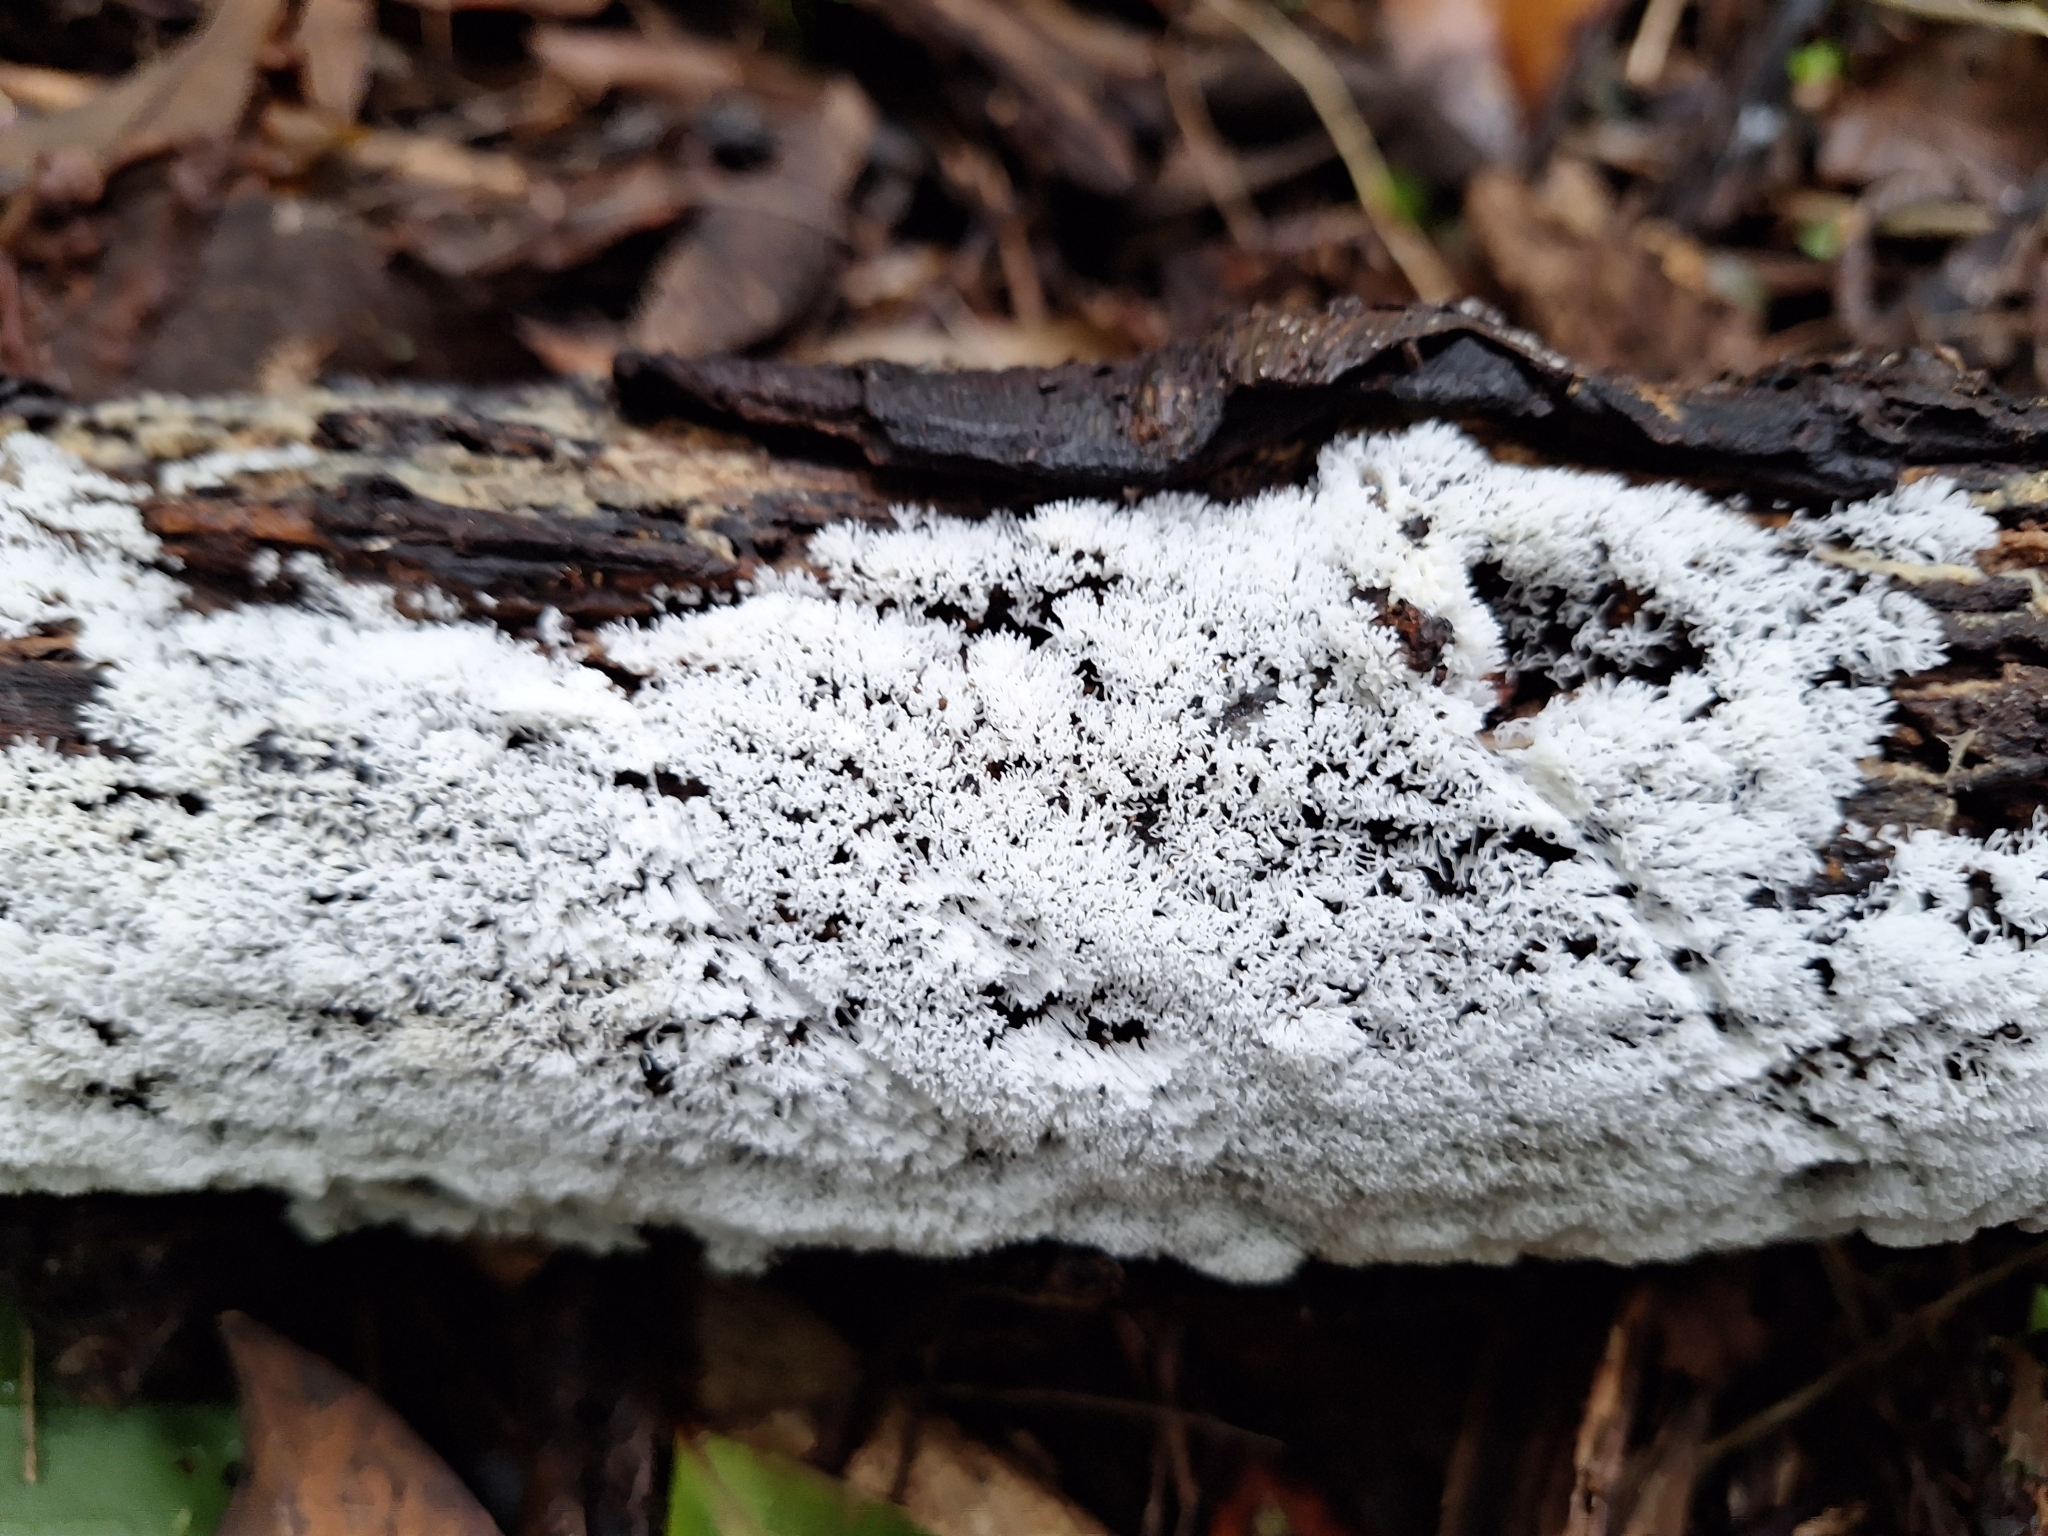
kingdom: Protozoa
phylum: Mycetozoa
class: Protosteliomycetes
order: Ceratiomyxales
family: Ceratiomyxaceae
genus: Ceratiomyxa
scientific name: Ceratiomyxa fruticulosa
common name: Honeycomb coral slime mold
